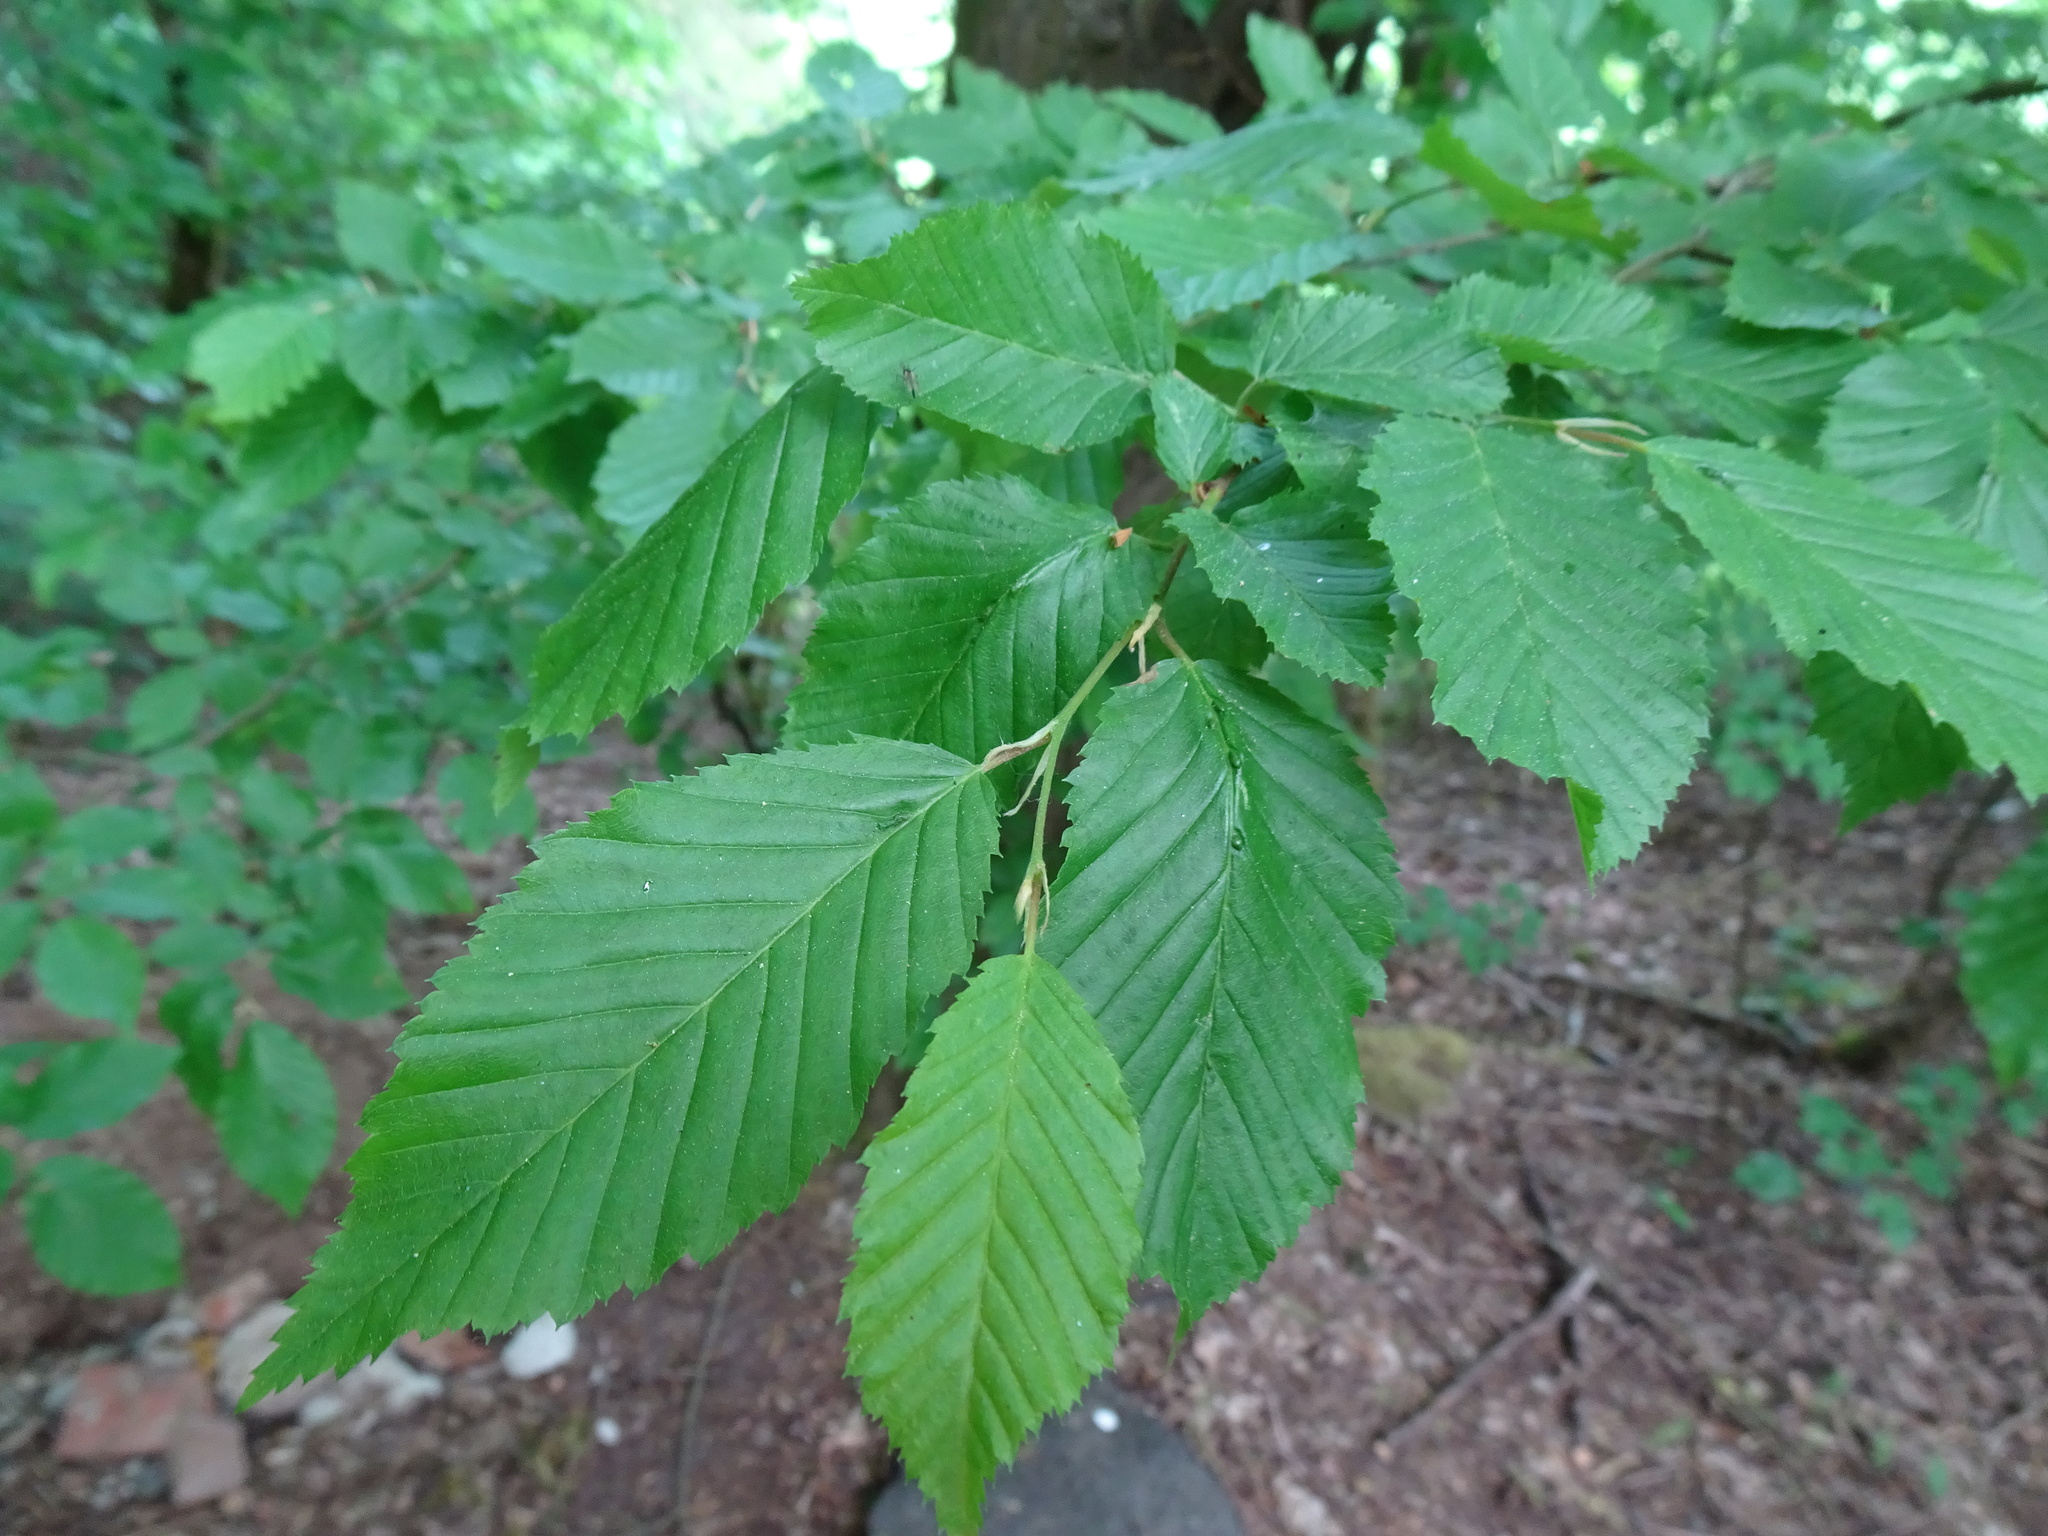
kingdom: Plantae
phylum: Tracheophyta
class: Magnoliopsida
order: Fagales
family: Betulaceae
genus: Carpinus
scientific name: Carpinus betulus
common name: Hornbeam
